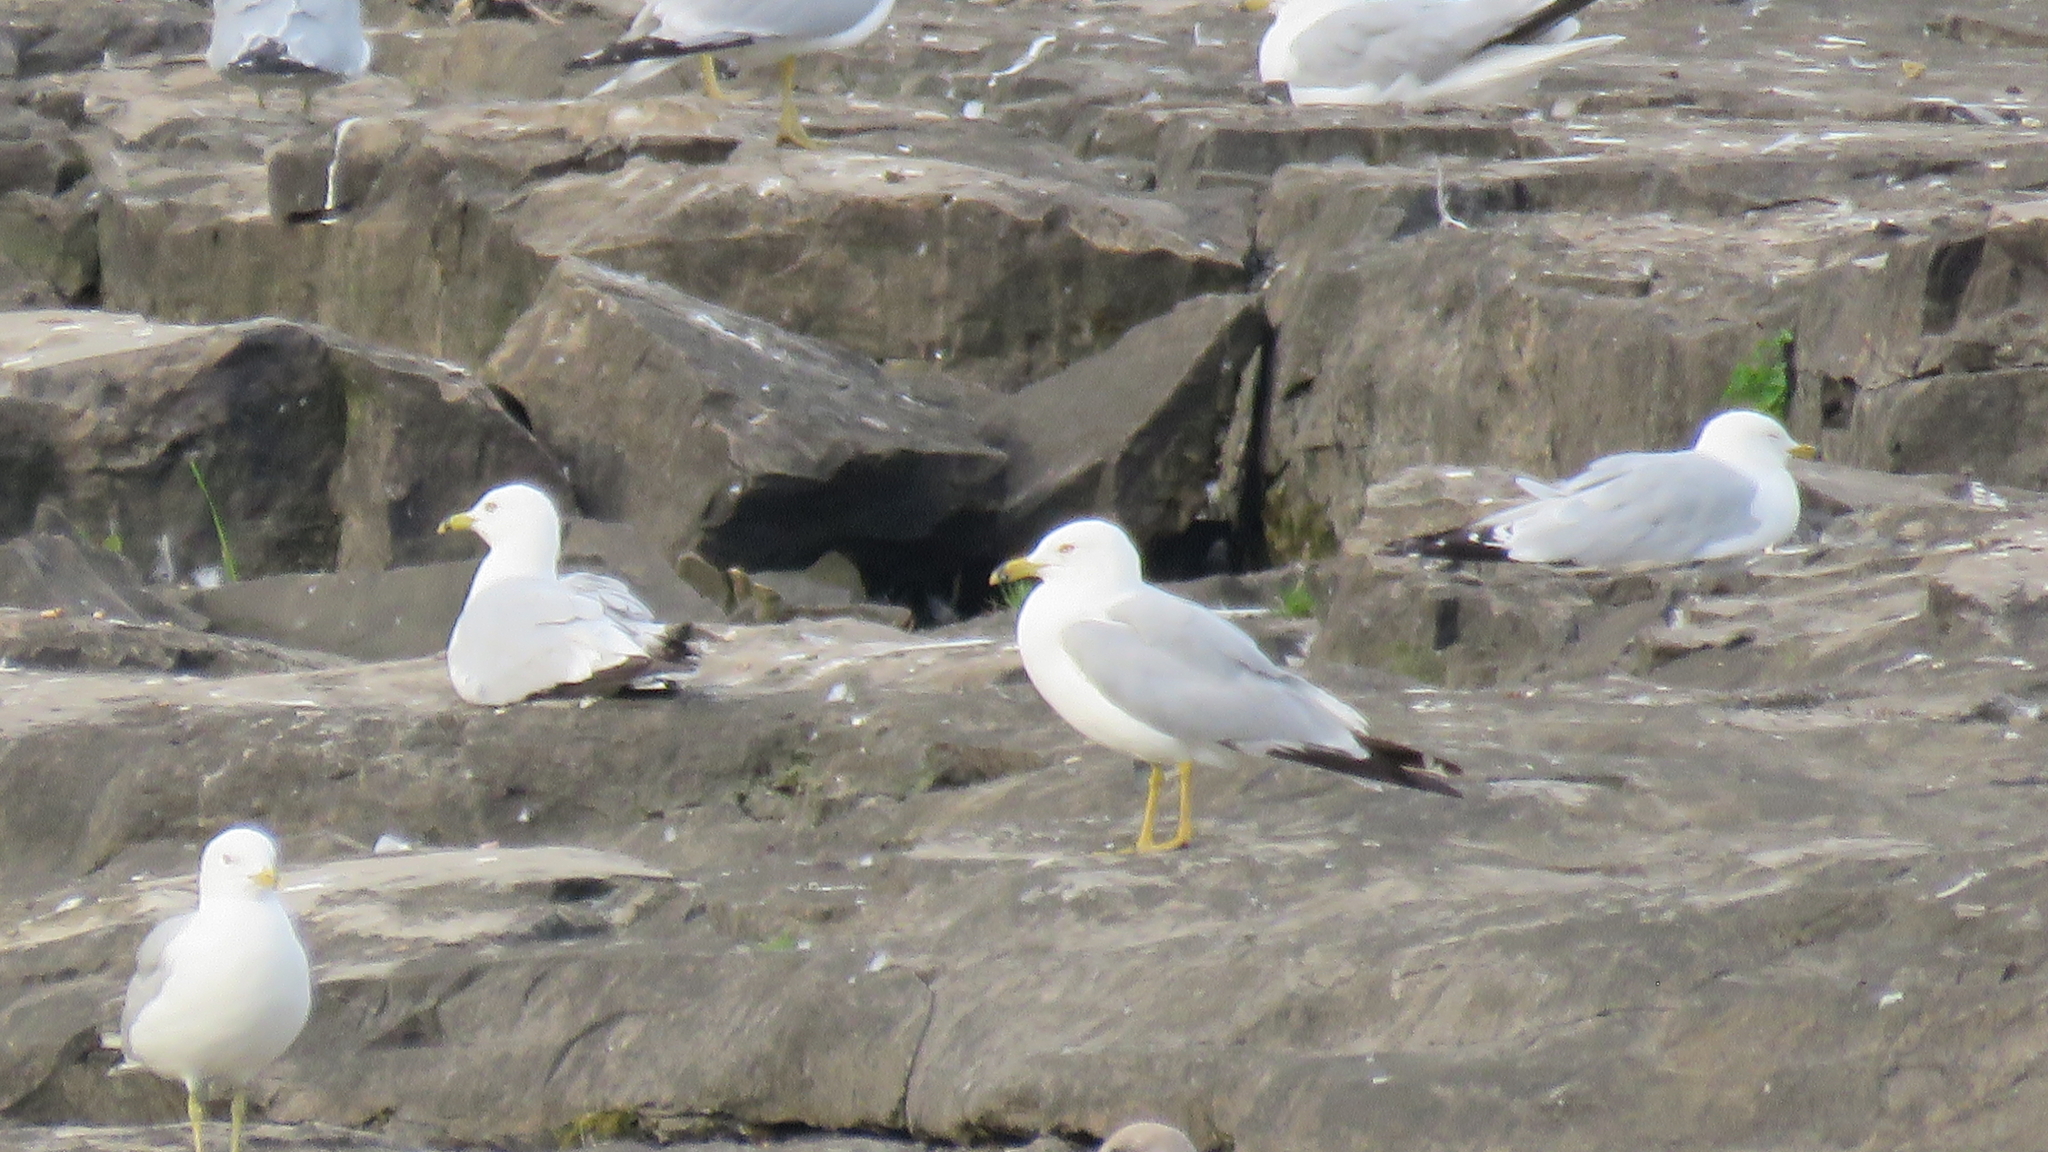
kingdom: Animalia
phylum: Chordata
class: Aves
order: Charadriiformes
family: Laridae
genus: Larus
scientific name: Larus delawarensis
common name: Ring-billed gull
